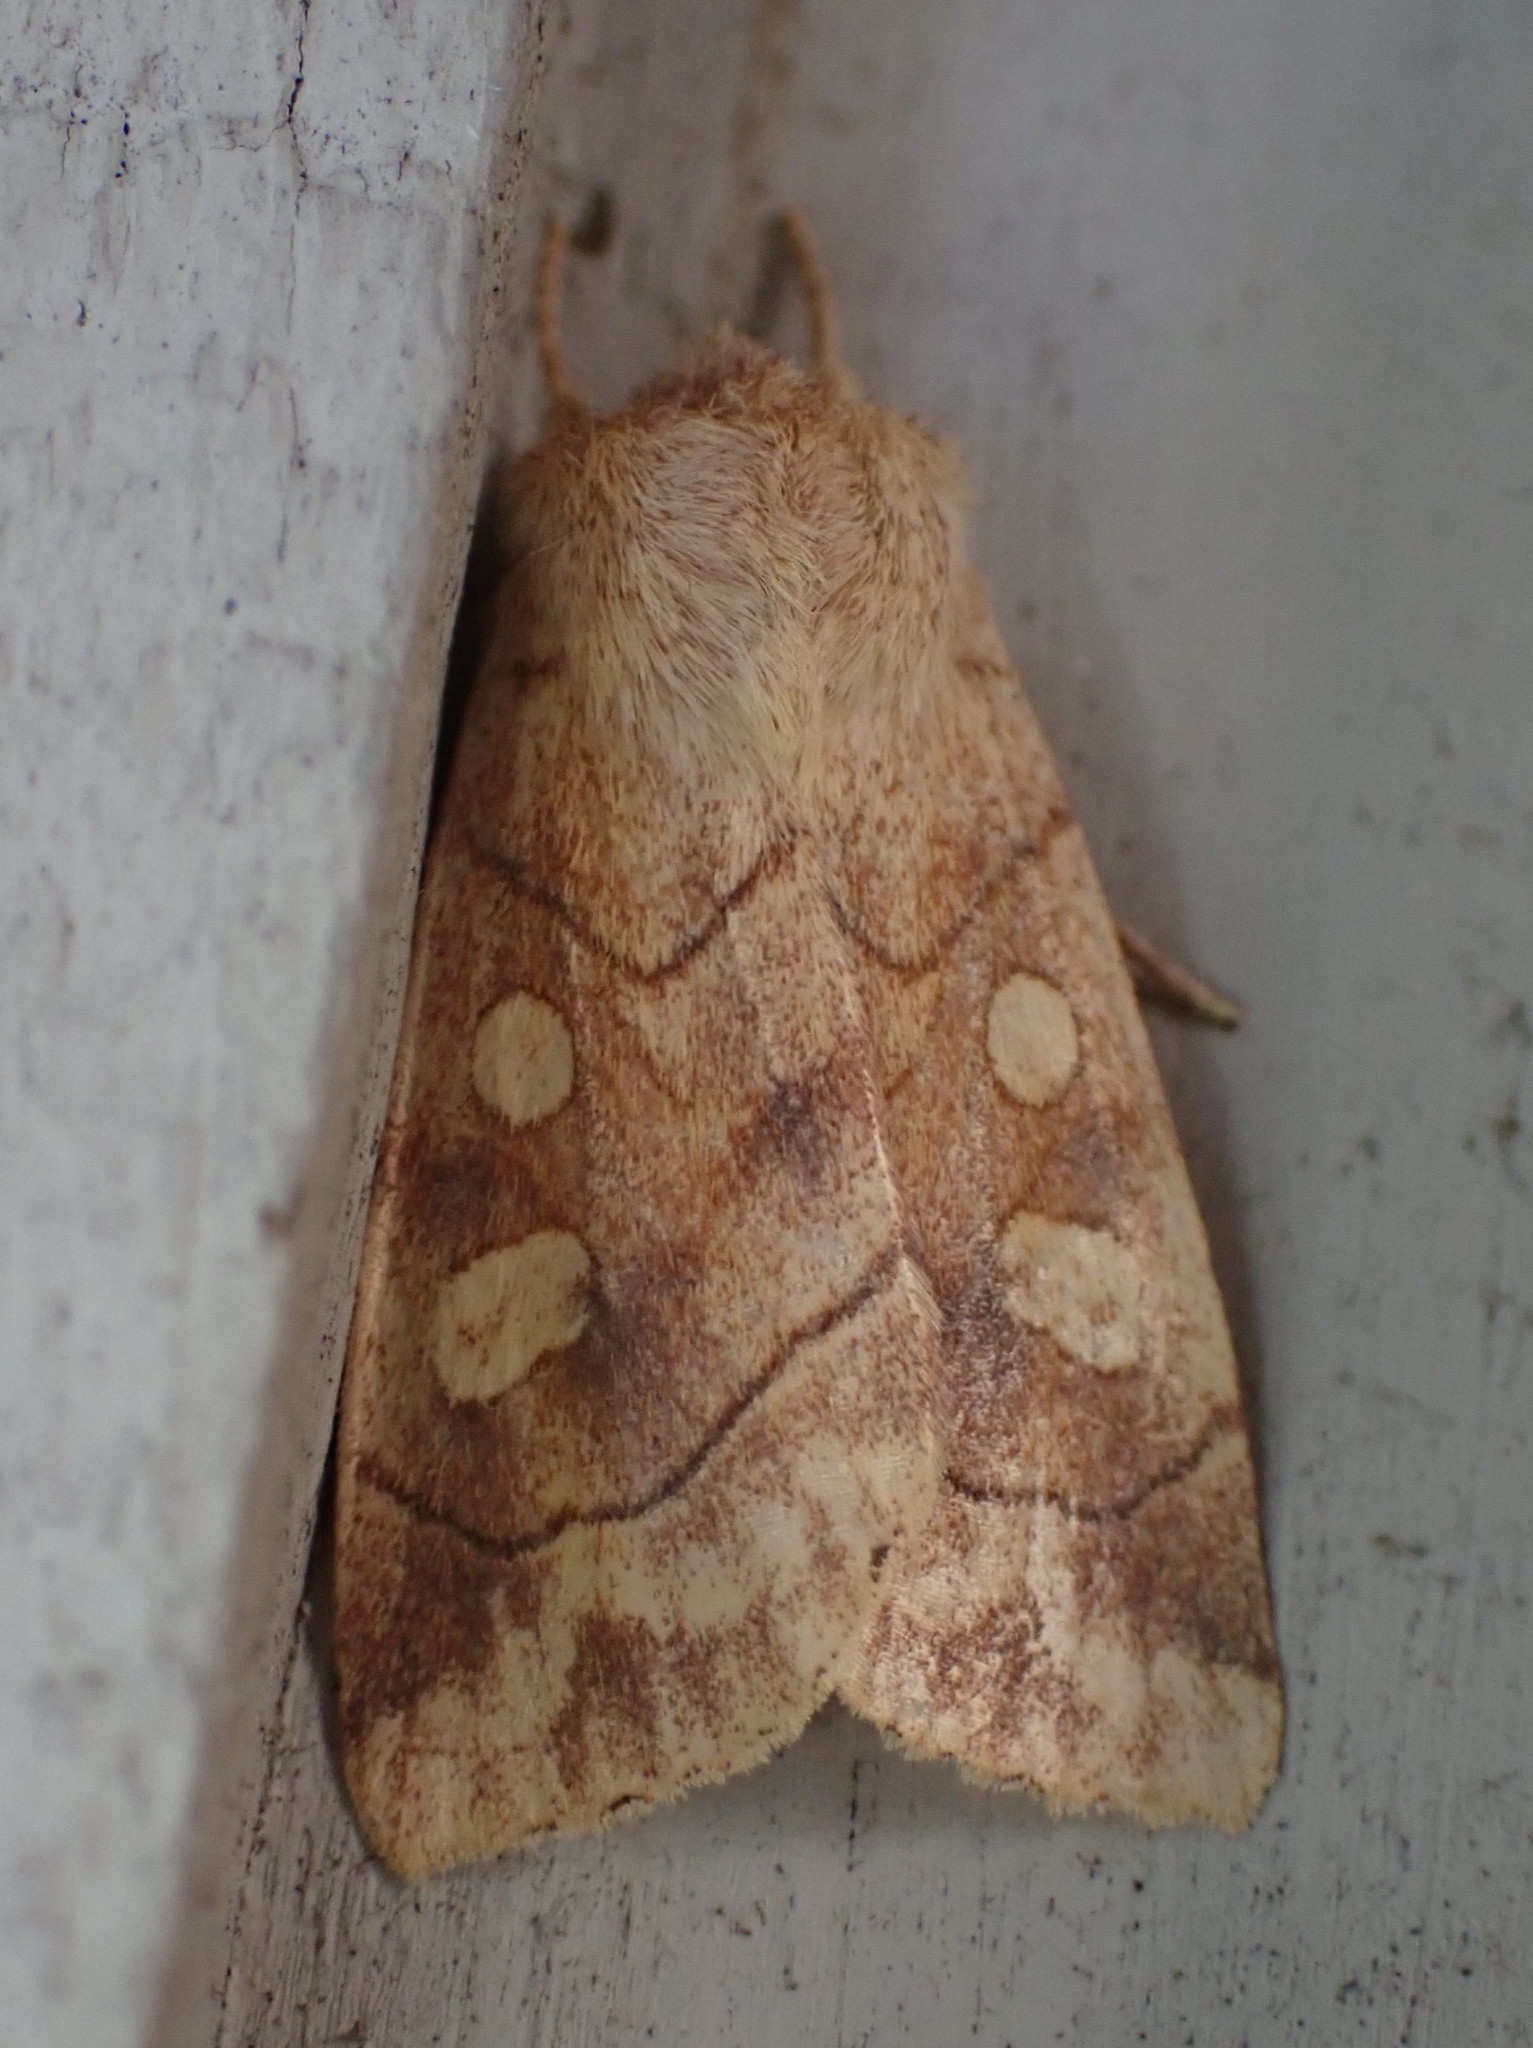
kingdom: Animalia
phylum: Arthropoda
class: Insecta
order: Lepidoptera
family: Noctuidae
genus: Enargia
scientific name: Enargia decolor
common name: Aspen twoleaf tier moth
